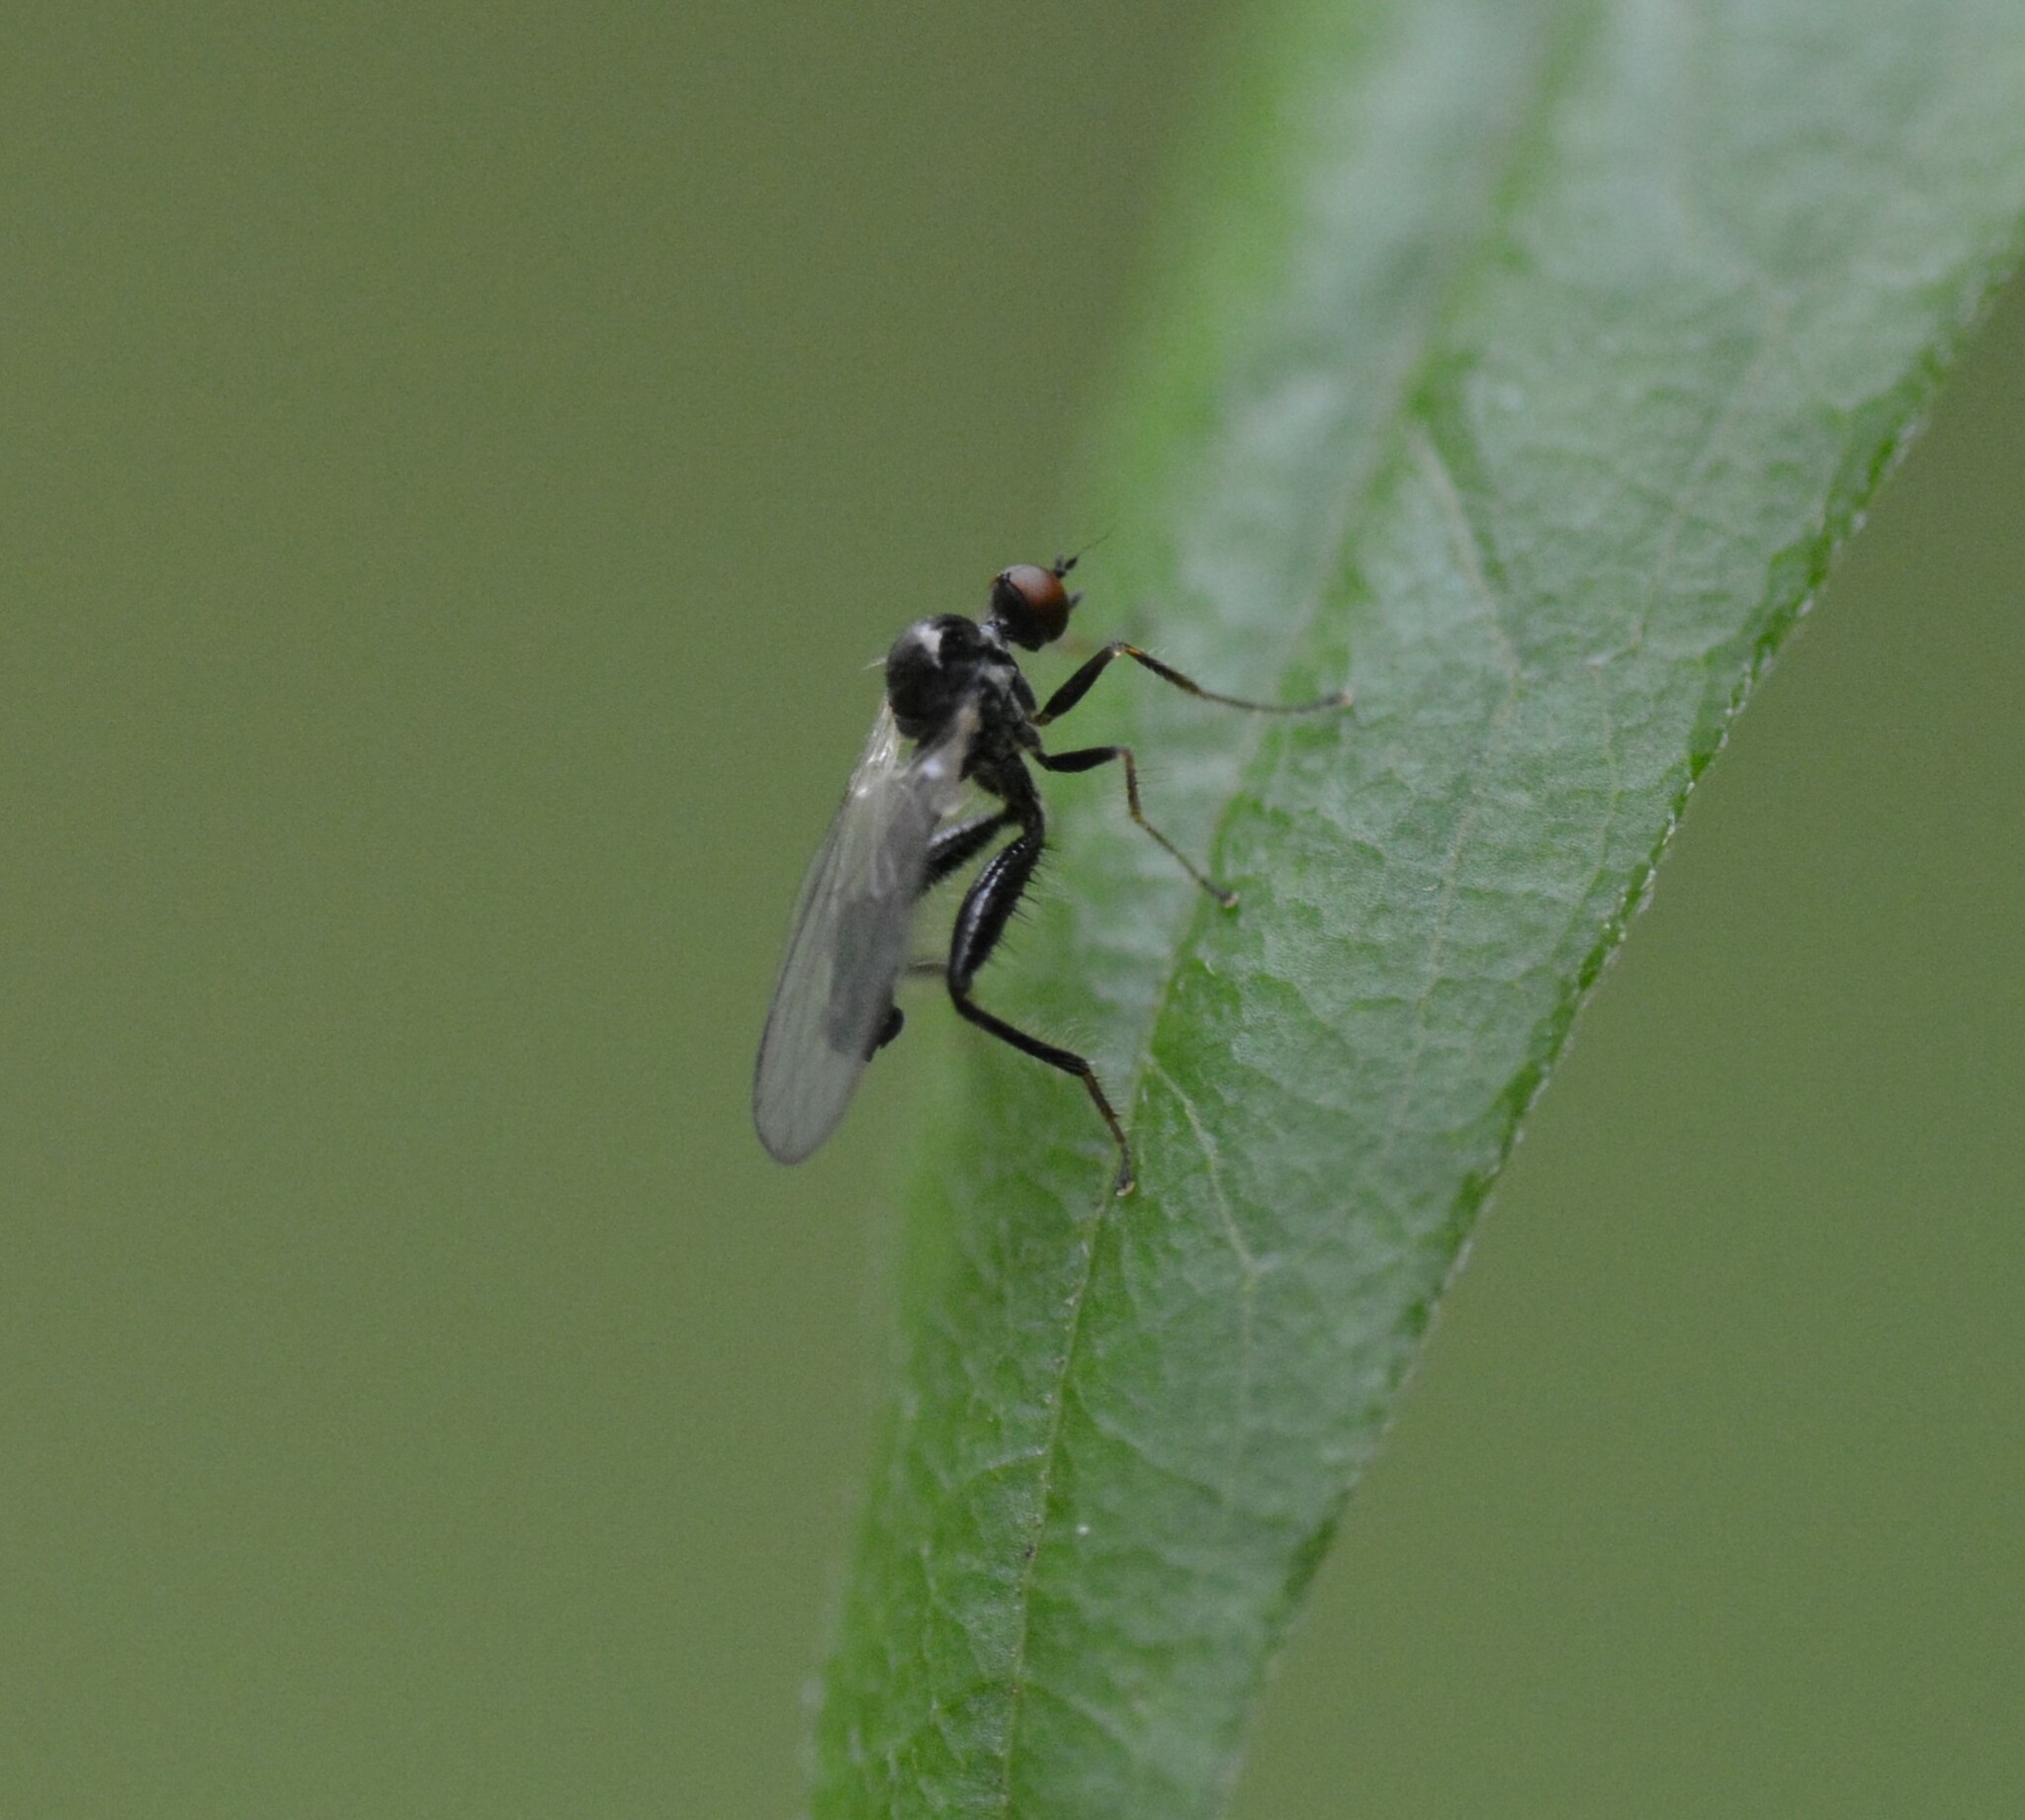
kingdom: Animalia
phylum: Arthropoda
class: Insecta
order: Diptera
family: Hybotidae
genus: Hybos
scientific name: Hybos reversus
